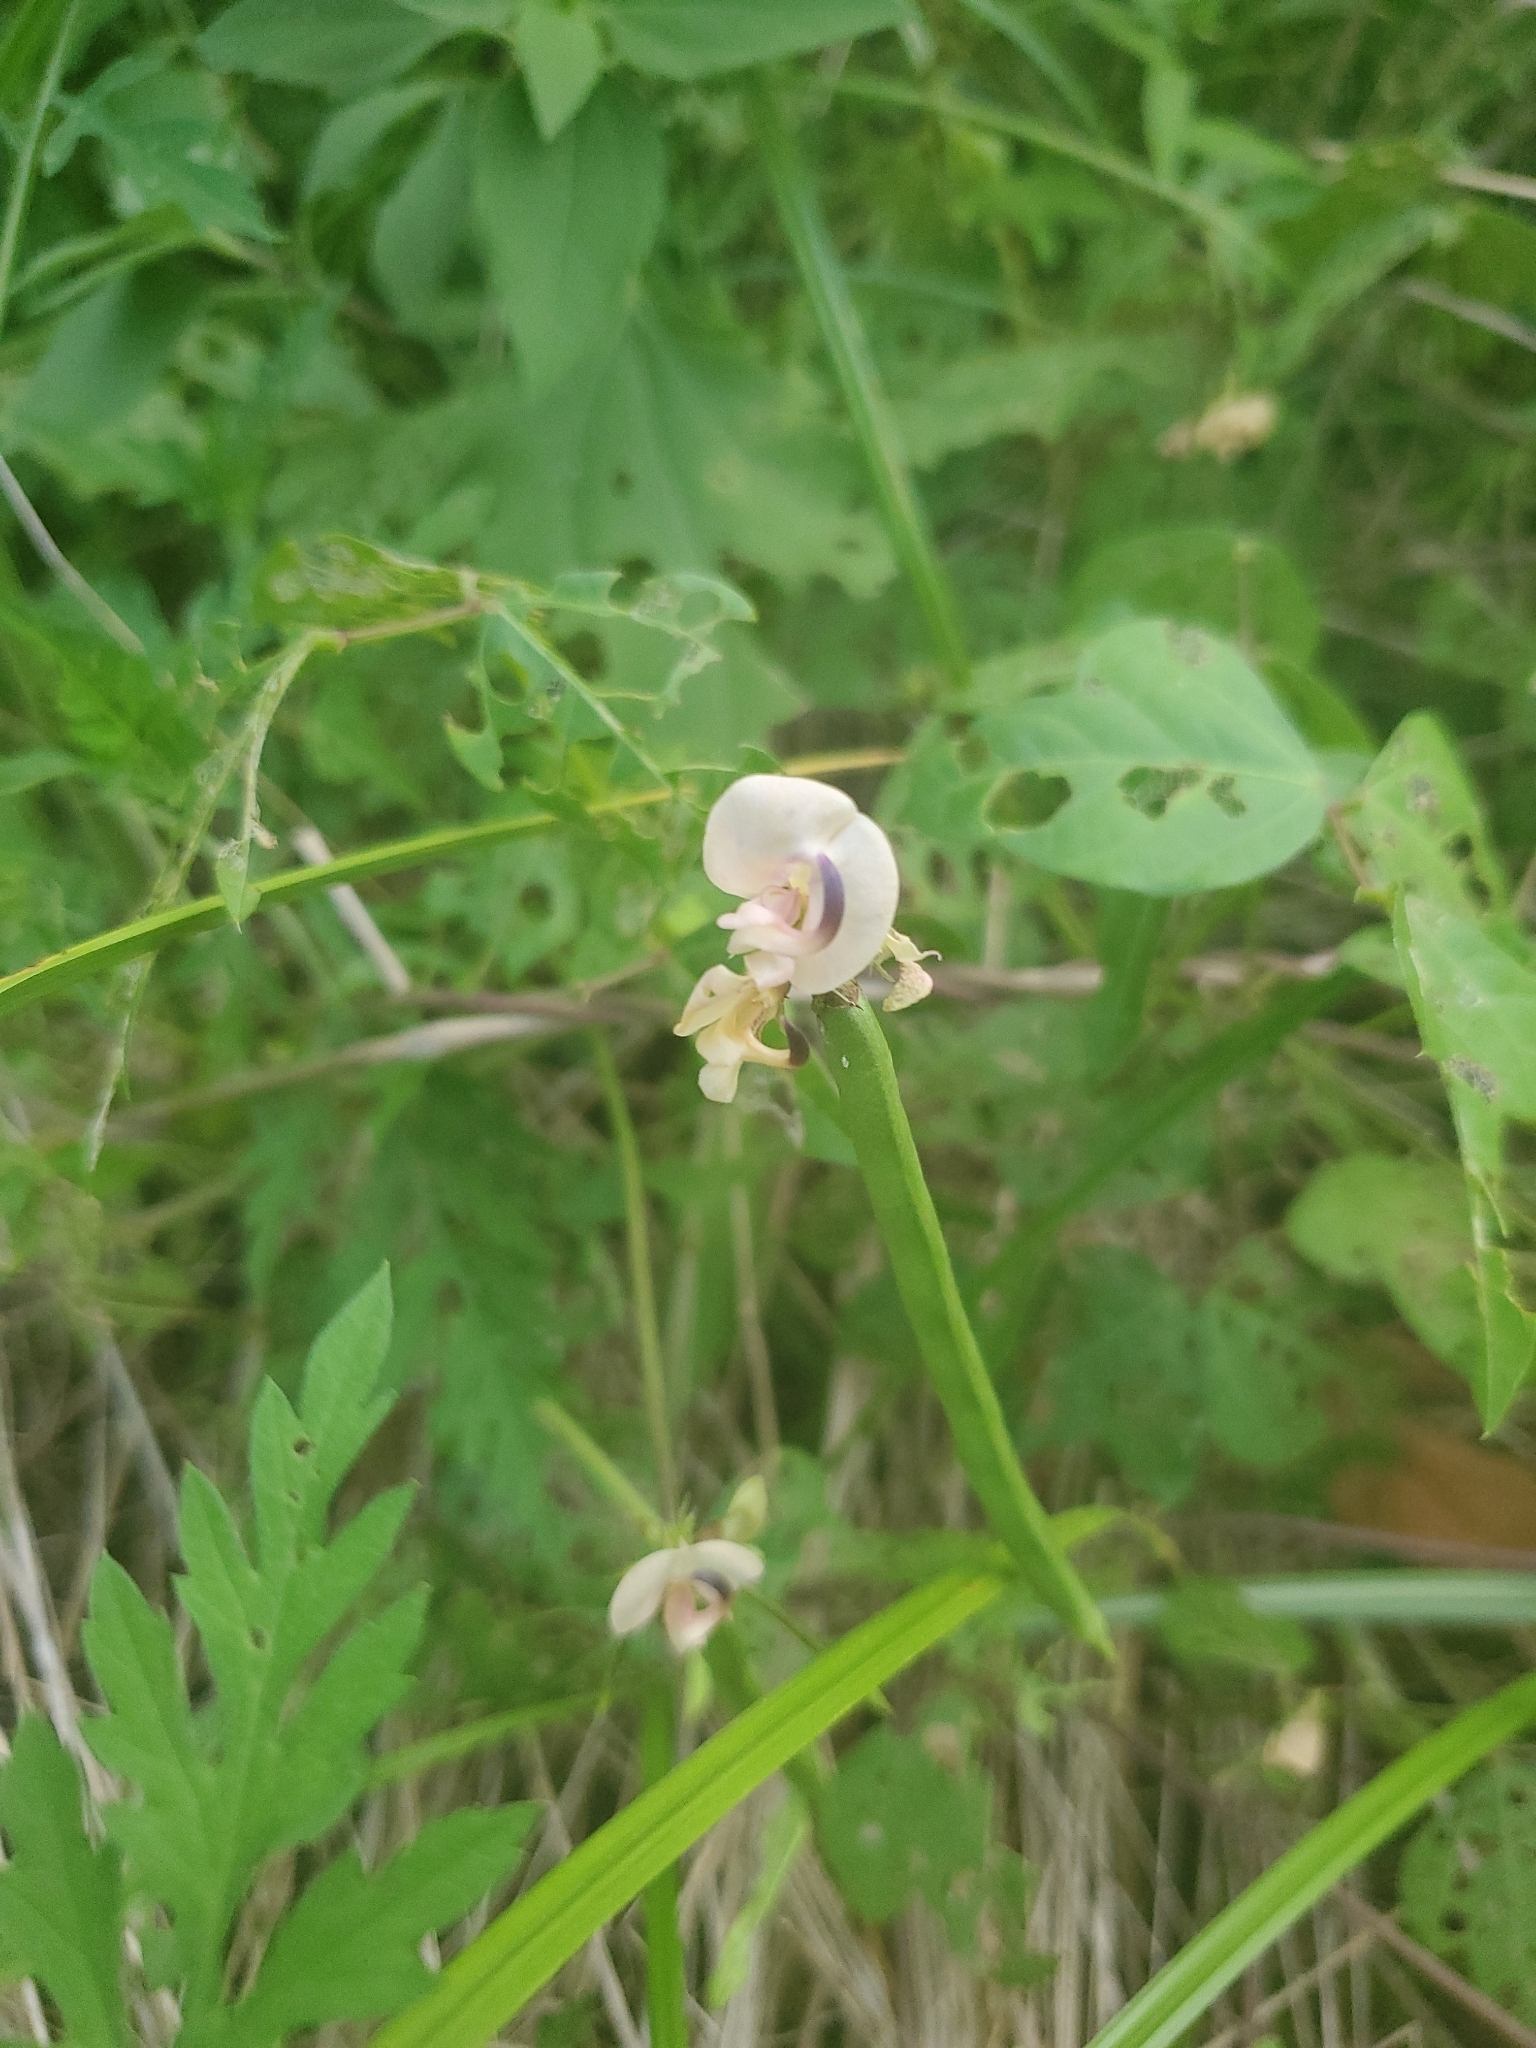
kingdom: Plantae
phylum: Tracheophyta
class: Magnoliopsida
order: Fabales
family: Fabaceae
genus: Strophostyles
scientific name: Strophostyles helvola
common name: Trailing wild bean
